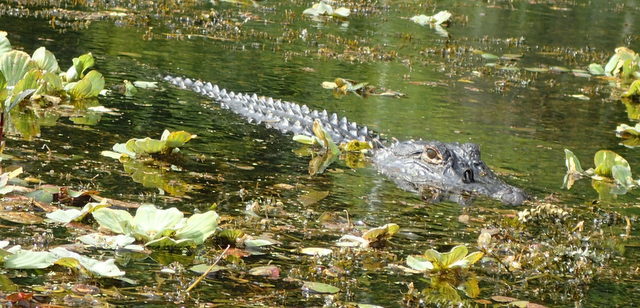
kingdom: Animalia
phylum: Chordata
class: Crocodylia
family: Alligatoridae
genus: Alligator
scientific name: Alligator mississippiensis
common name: American alligator
